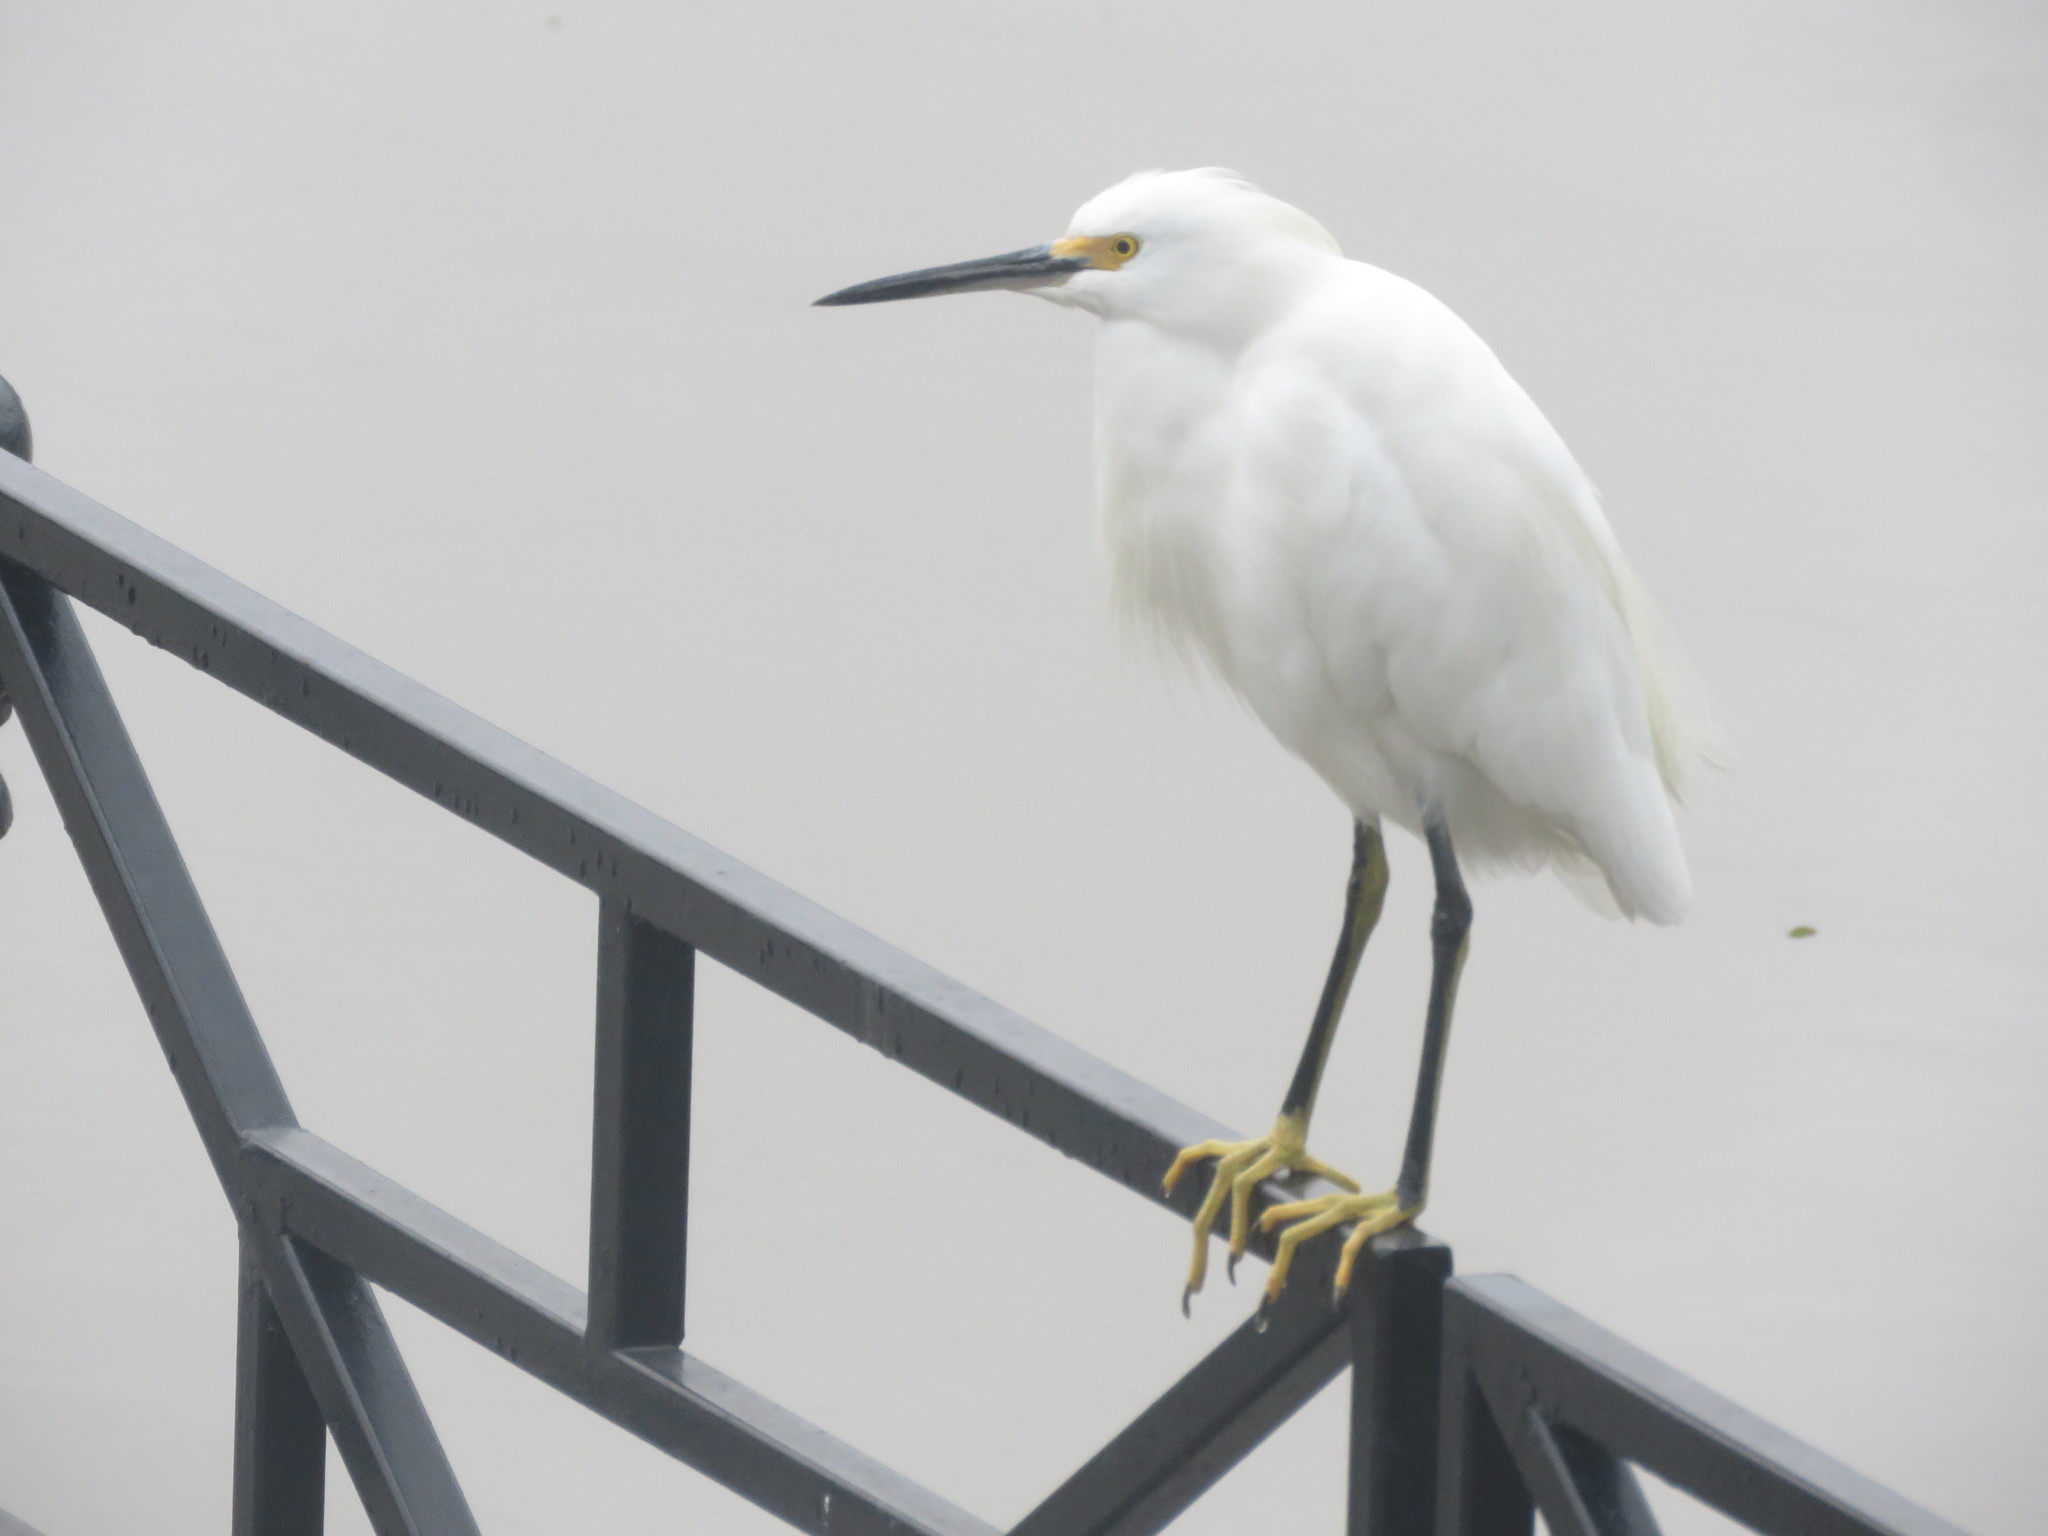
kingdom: Animalia
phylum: Chordata
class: Aves
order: Pelecaniformes
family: Ardeidae
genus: Egretta
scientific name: Egretta thula
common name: Snowy egret
